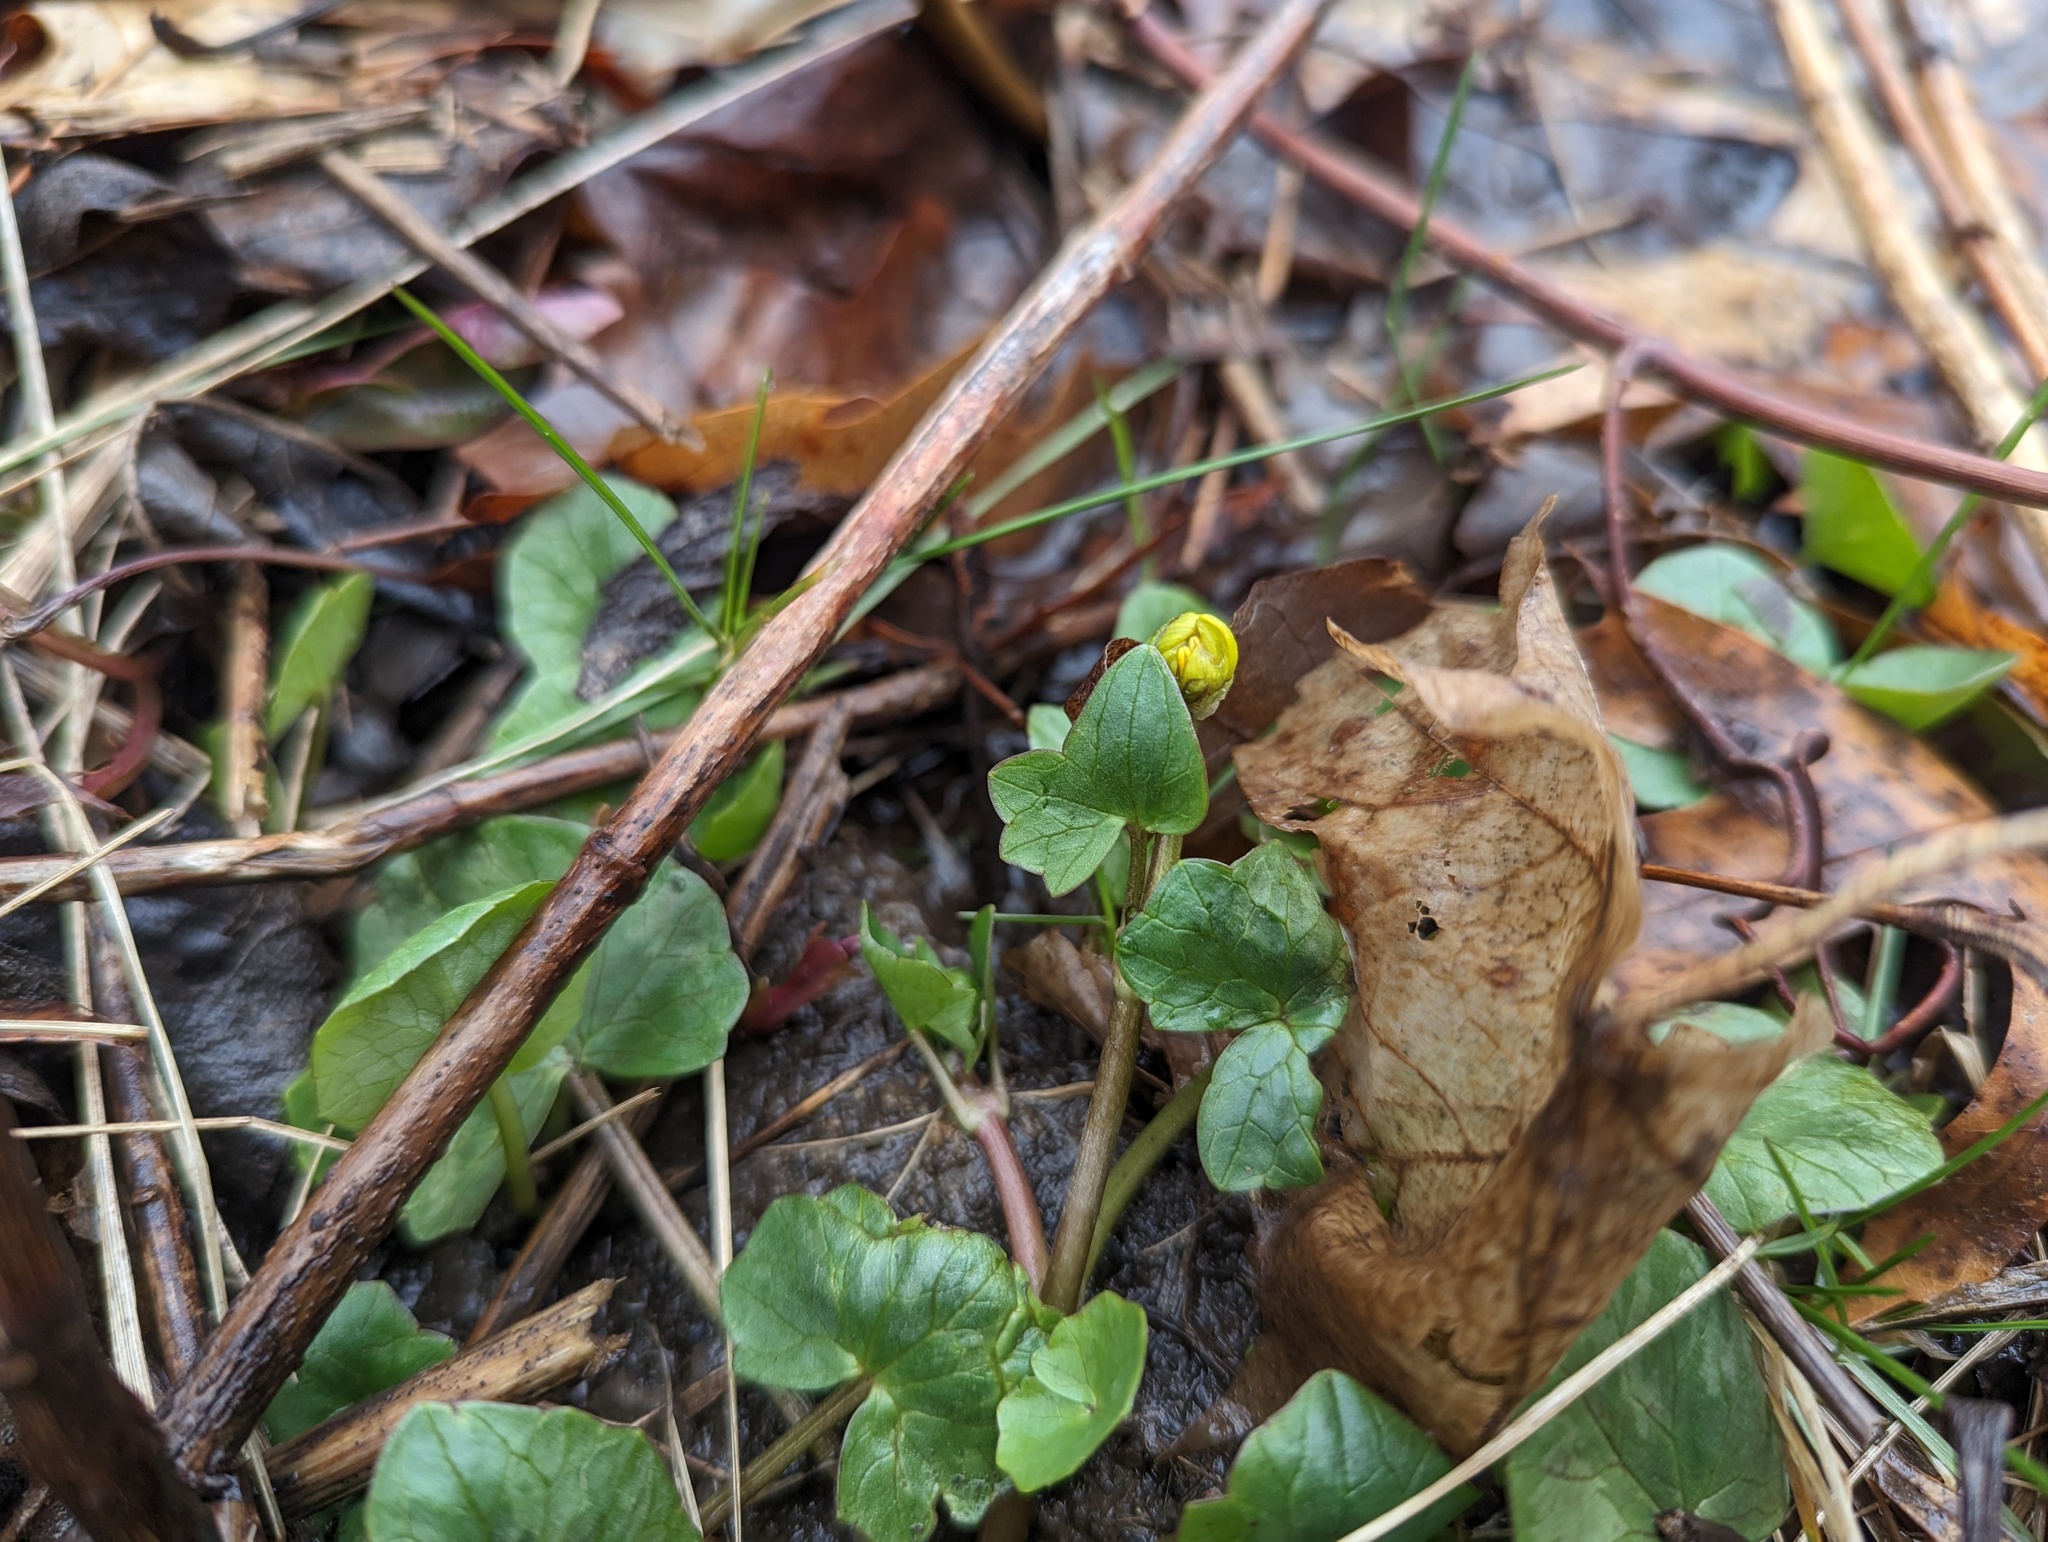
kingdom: Plantae
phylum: Tracheophyta
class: Magnoliopsida
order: Ranunculales
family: Ranunculaceae
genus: Ficaria
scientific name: Ficaria verna
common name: Lesser celandine
